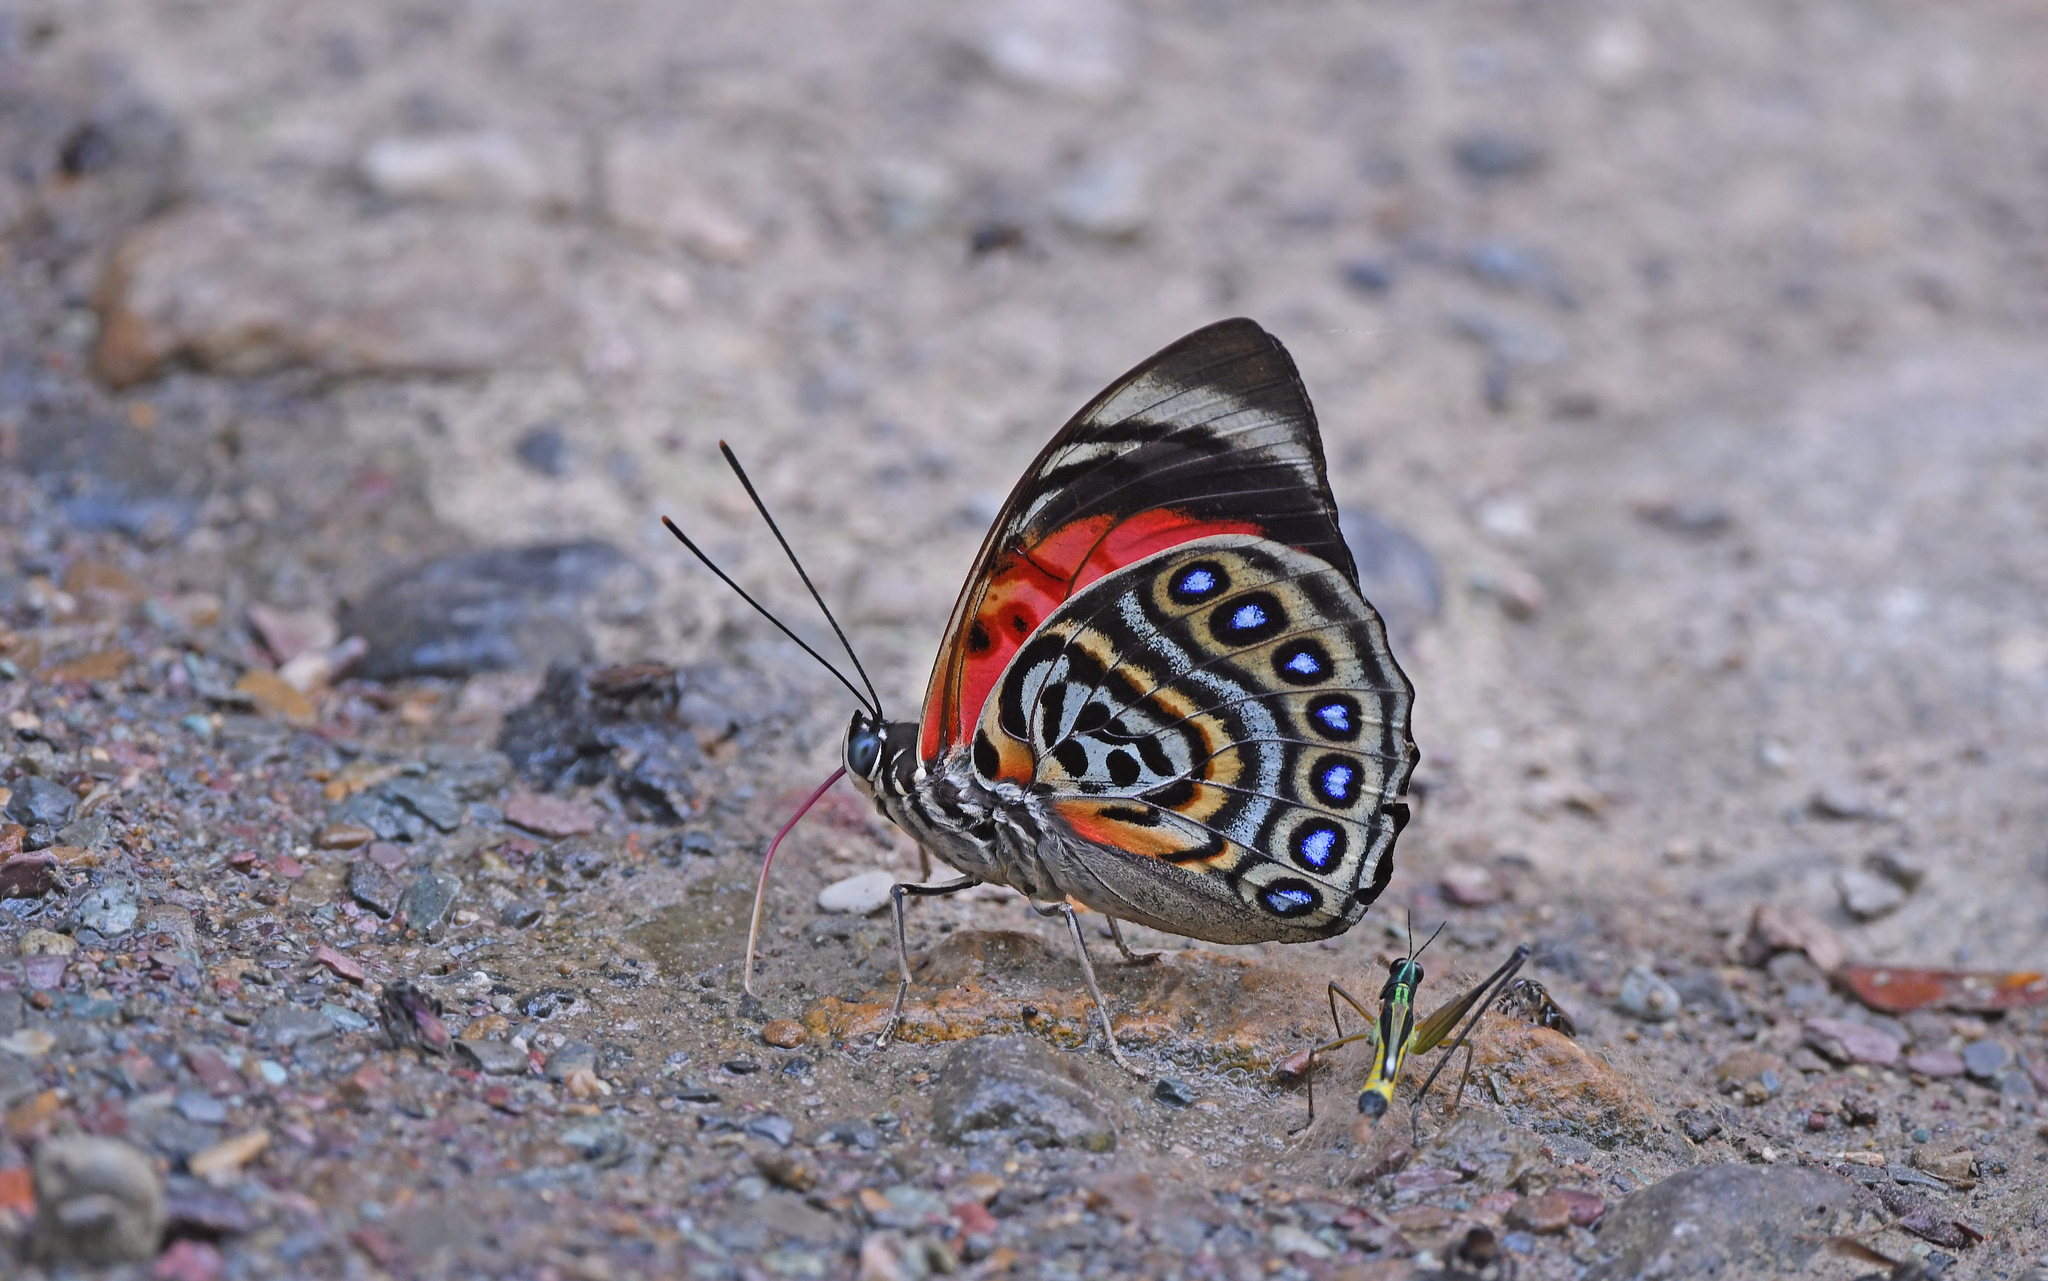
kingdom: Animalia
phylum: Arthropoda
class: Insecta
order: Lepidoptera
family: Nymphalidae
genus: Prepona
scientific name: Prepona claudina
